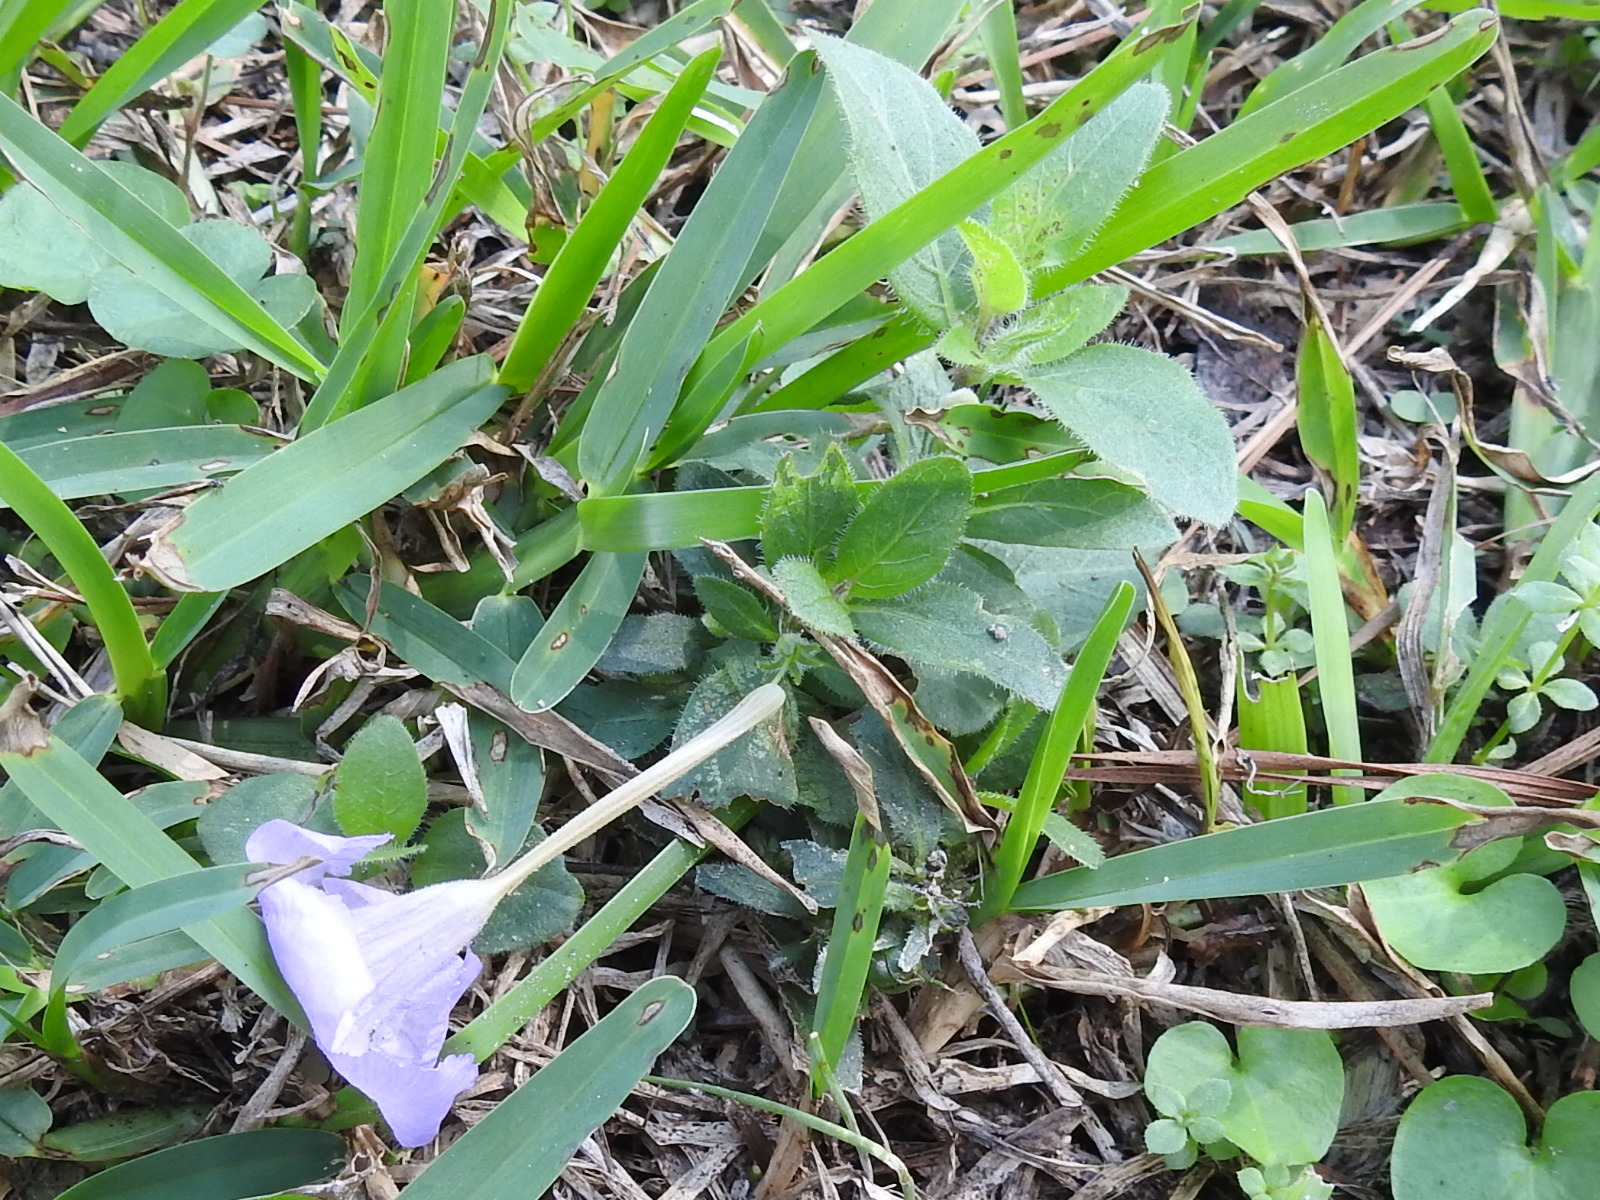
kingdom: Plantae
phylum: Tracheophyta
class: Magnoliopsida
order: Lamiales
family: Acanthaceae
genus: Ruellia
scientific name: Ruellia humilis
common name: Fringe-leaf ruellia
